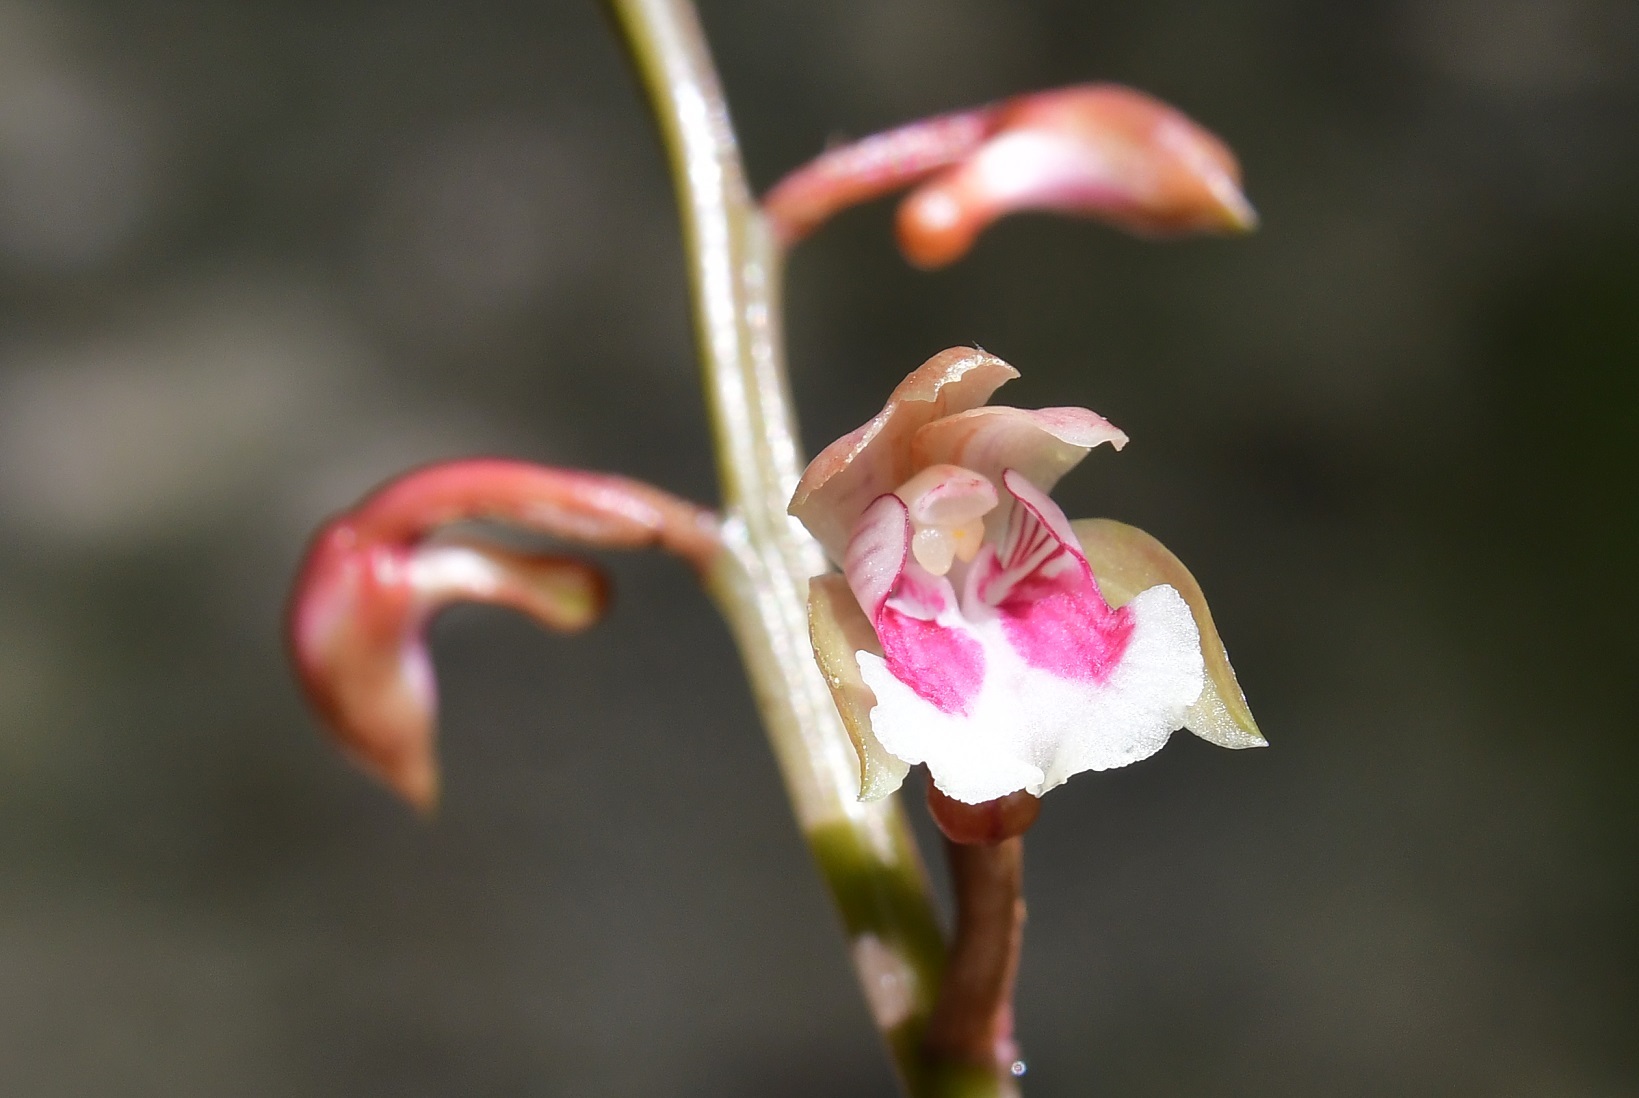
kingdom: Plantae
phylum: Tracheophyta
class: Liliopsida
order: Asparagales
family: Orchidaceae
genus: Eulophia
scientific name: Eulophia maculata
